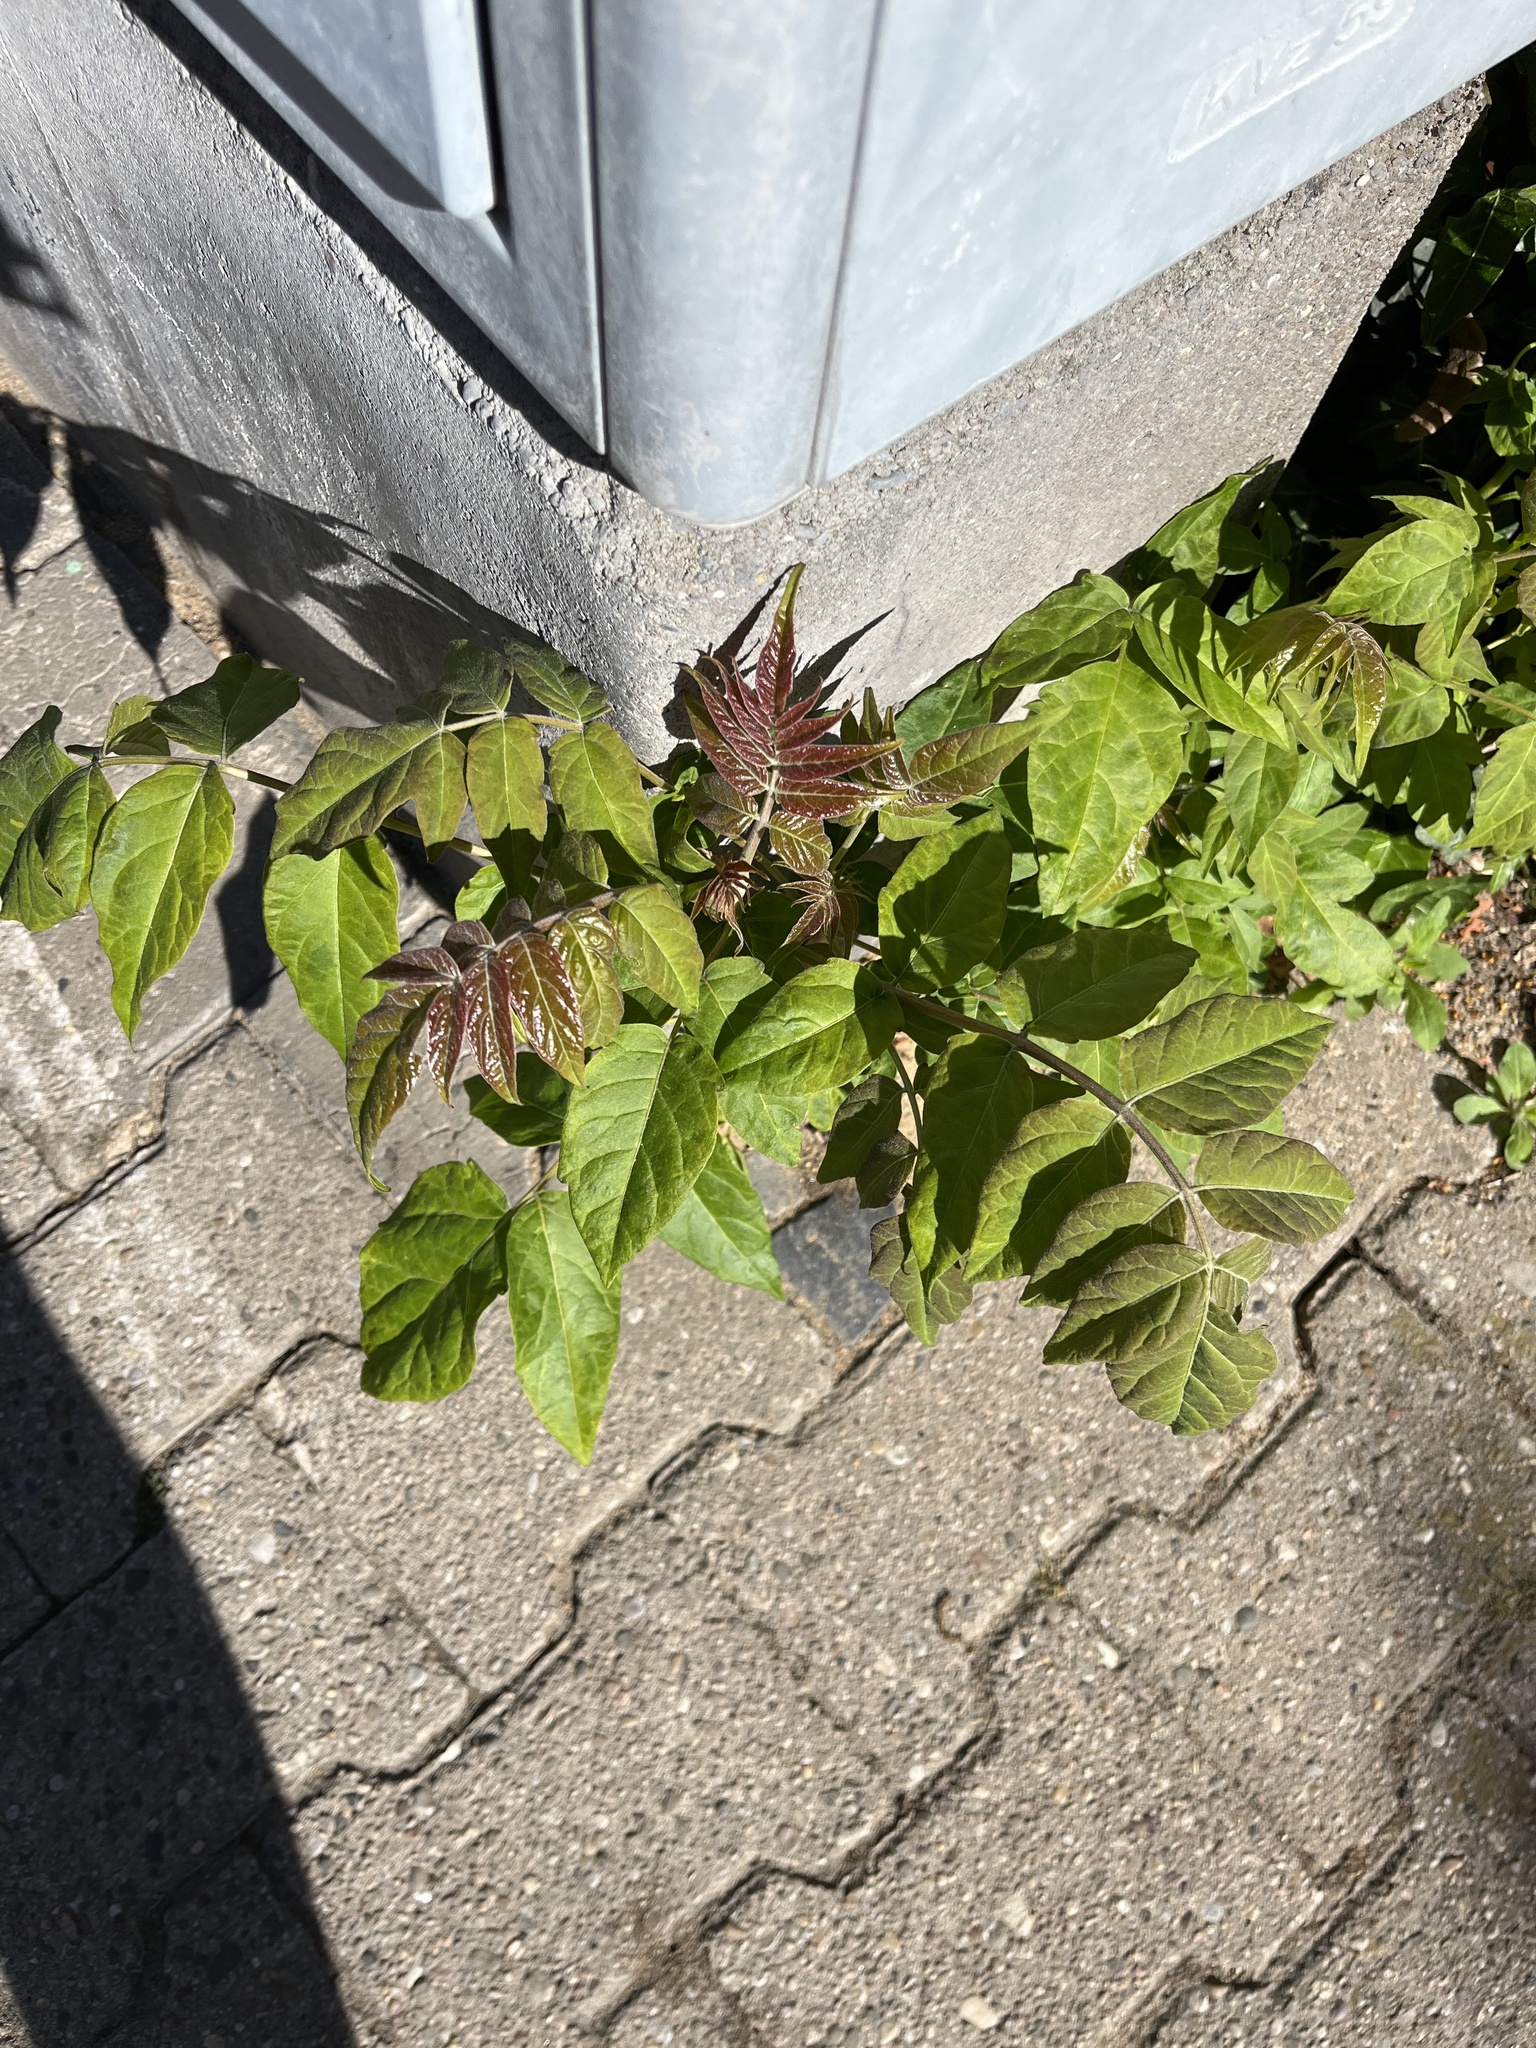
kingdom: Plantae
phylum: Tracheophyta
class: Magnoliopsida
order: Sapindales
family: Simaroubaceae
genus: Ailanthus
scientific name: Ailanthus altissima
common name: Tree-of-heaven
